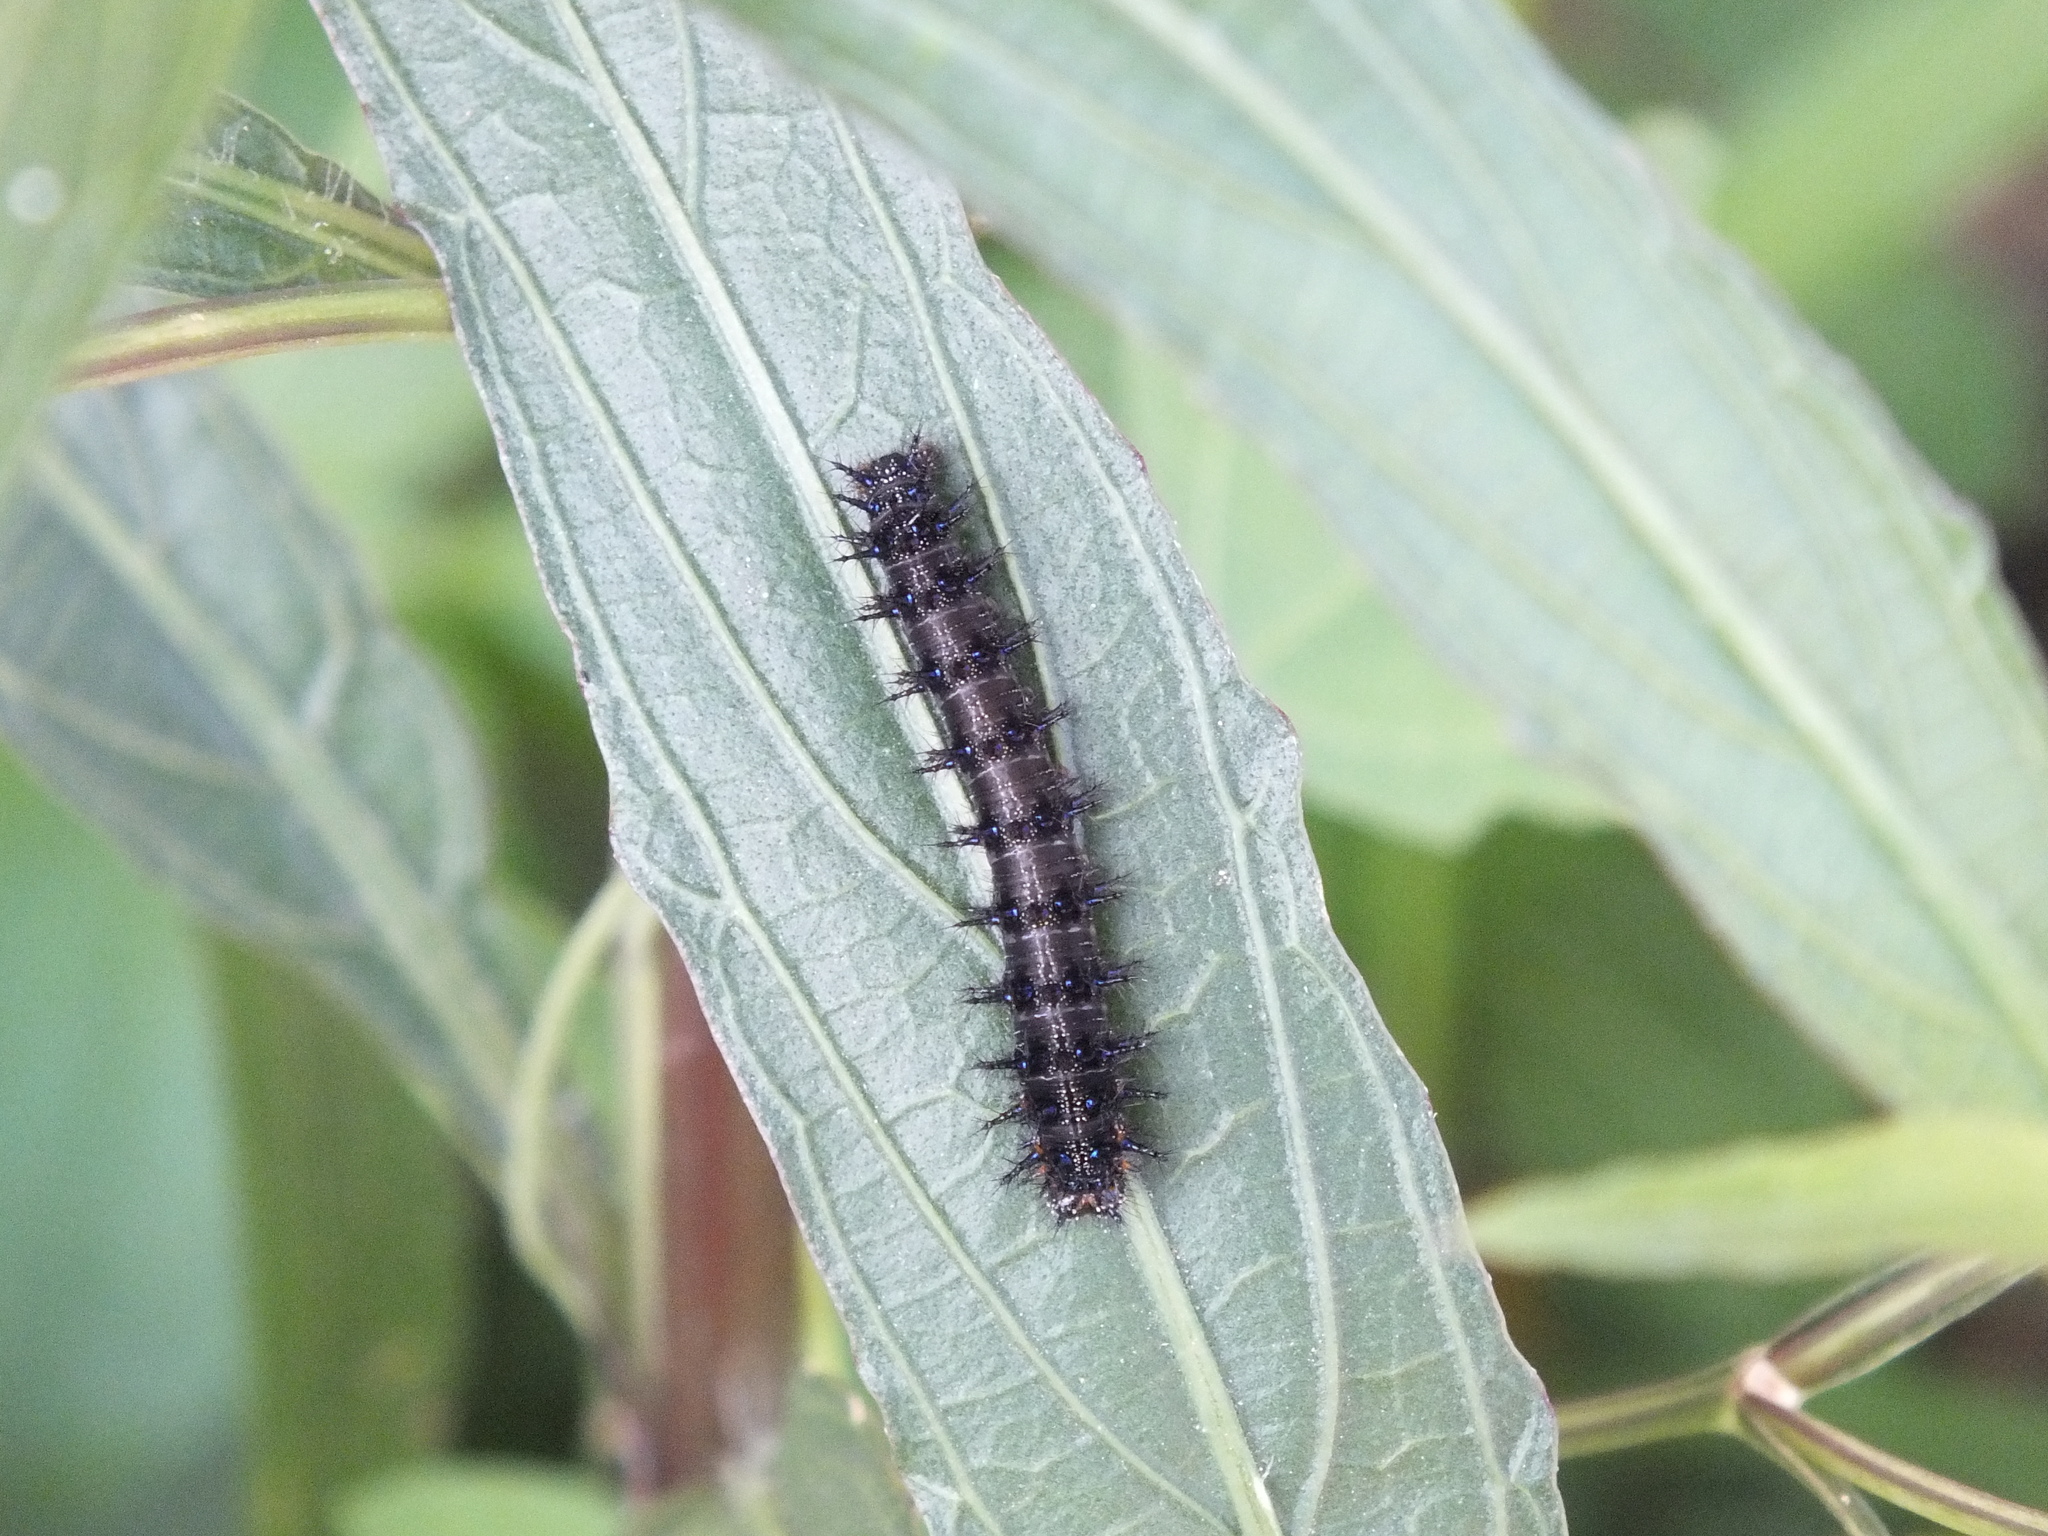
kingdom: Plantae
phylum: Tracheophyta
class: Magnoliopsida
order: Lamiales
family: Acanthaceae
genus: Ruellia
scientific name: Ruellia simplex
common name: Softseed wild petunia
